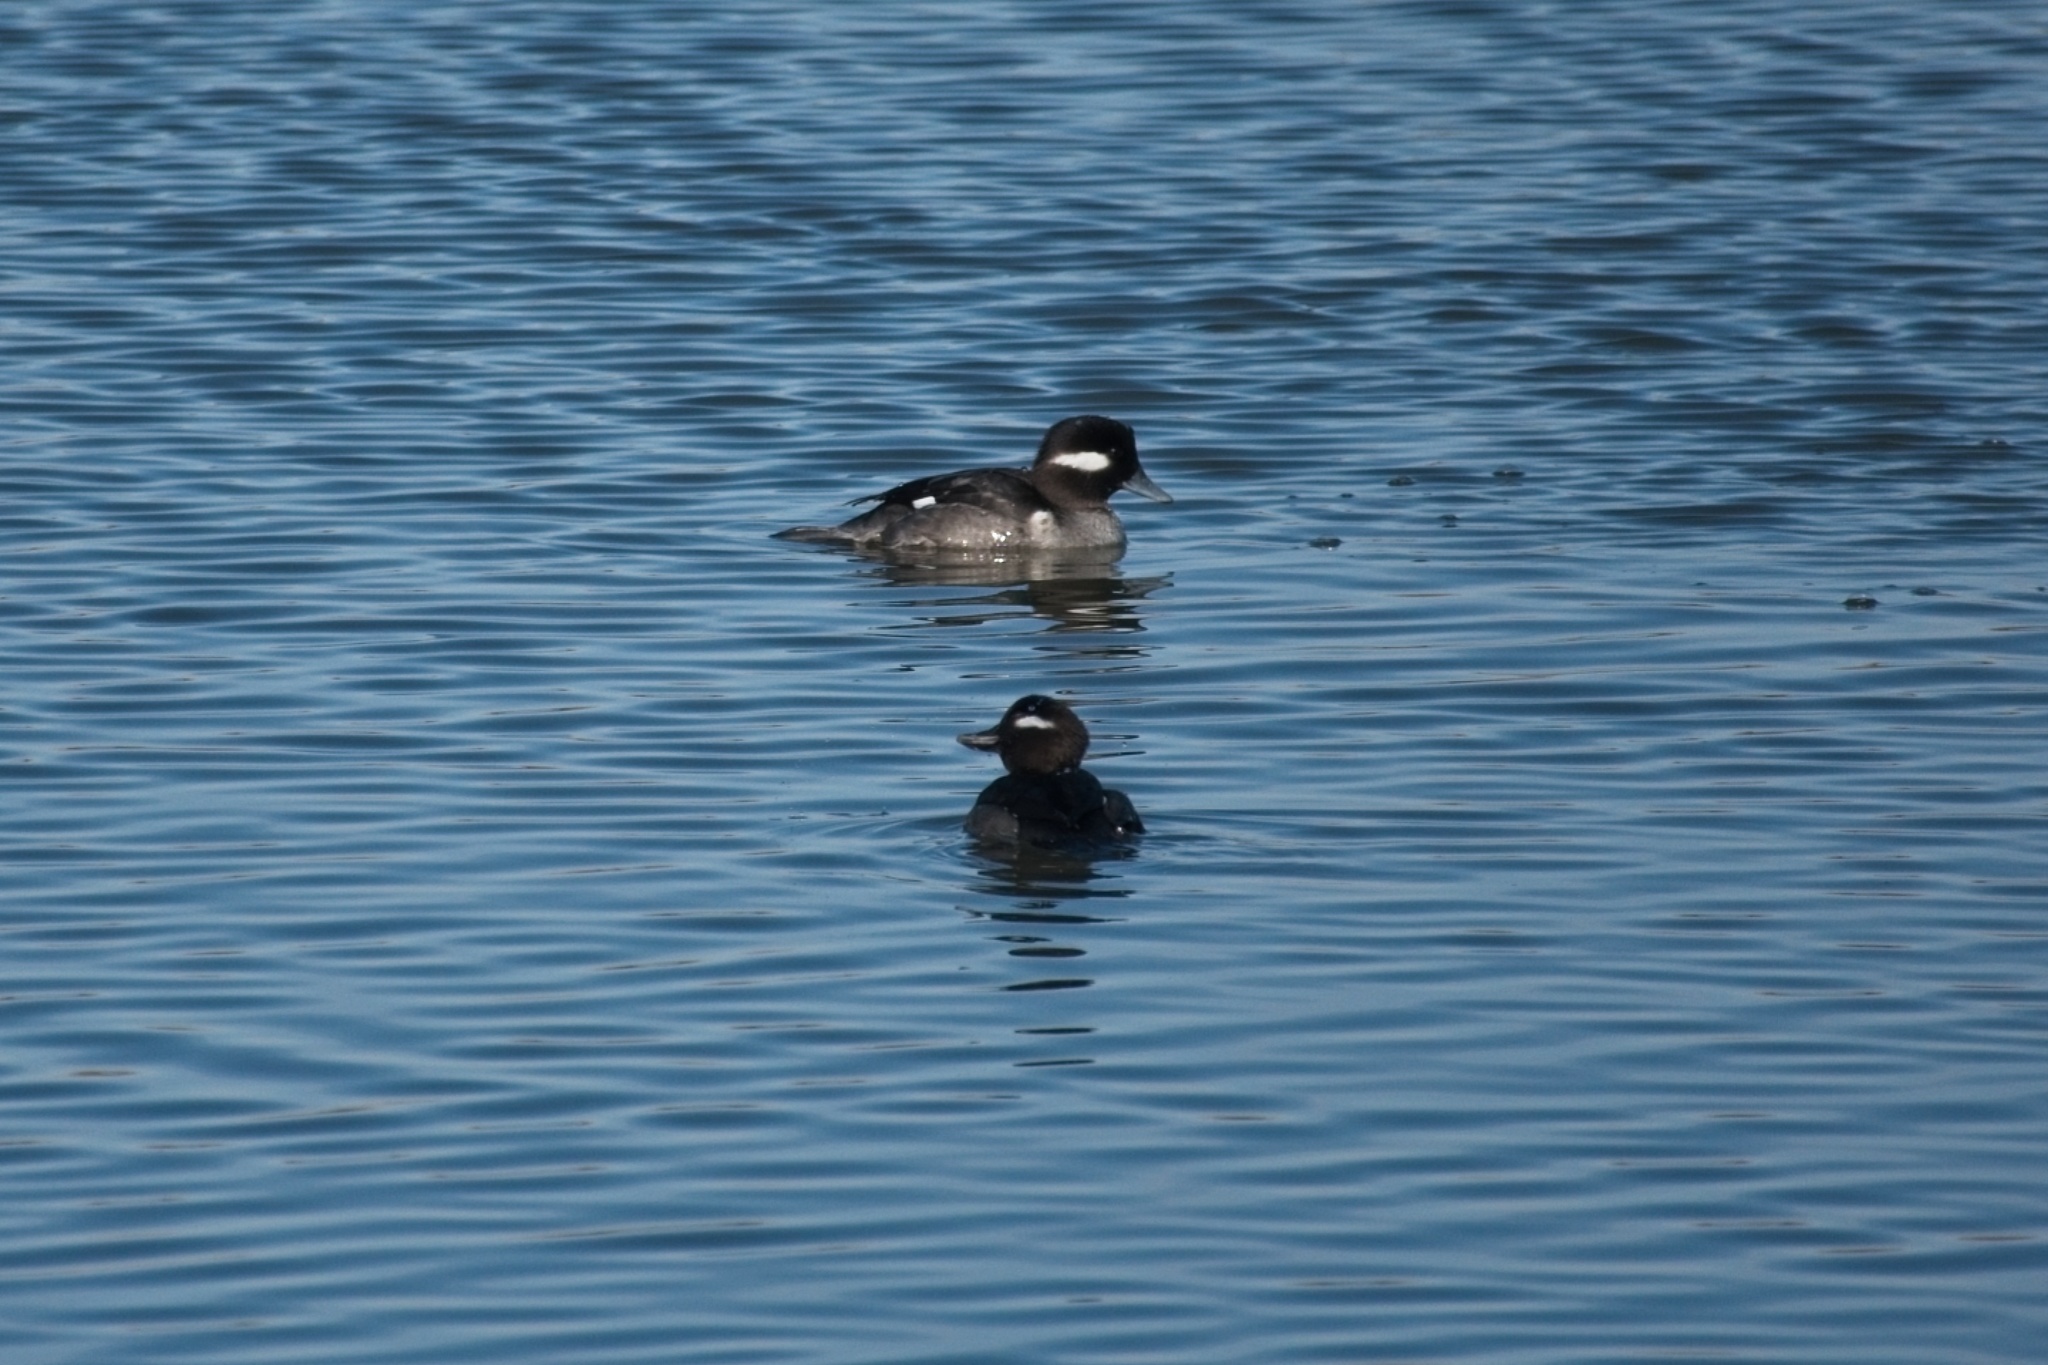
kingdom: Animalia
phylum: Chordata
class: Aves
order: Anseriformes
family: Anatidae
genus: Bucephala
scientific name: Bucephala albeola
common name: Bufflehead
